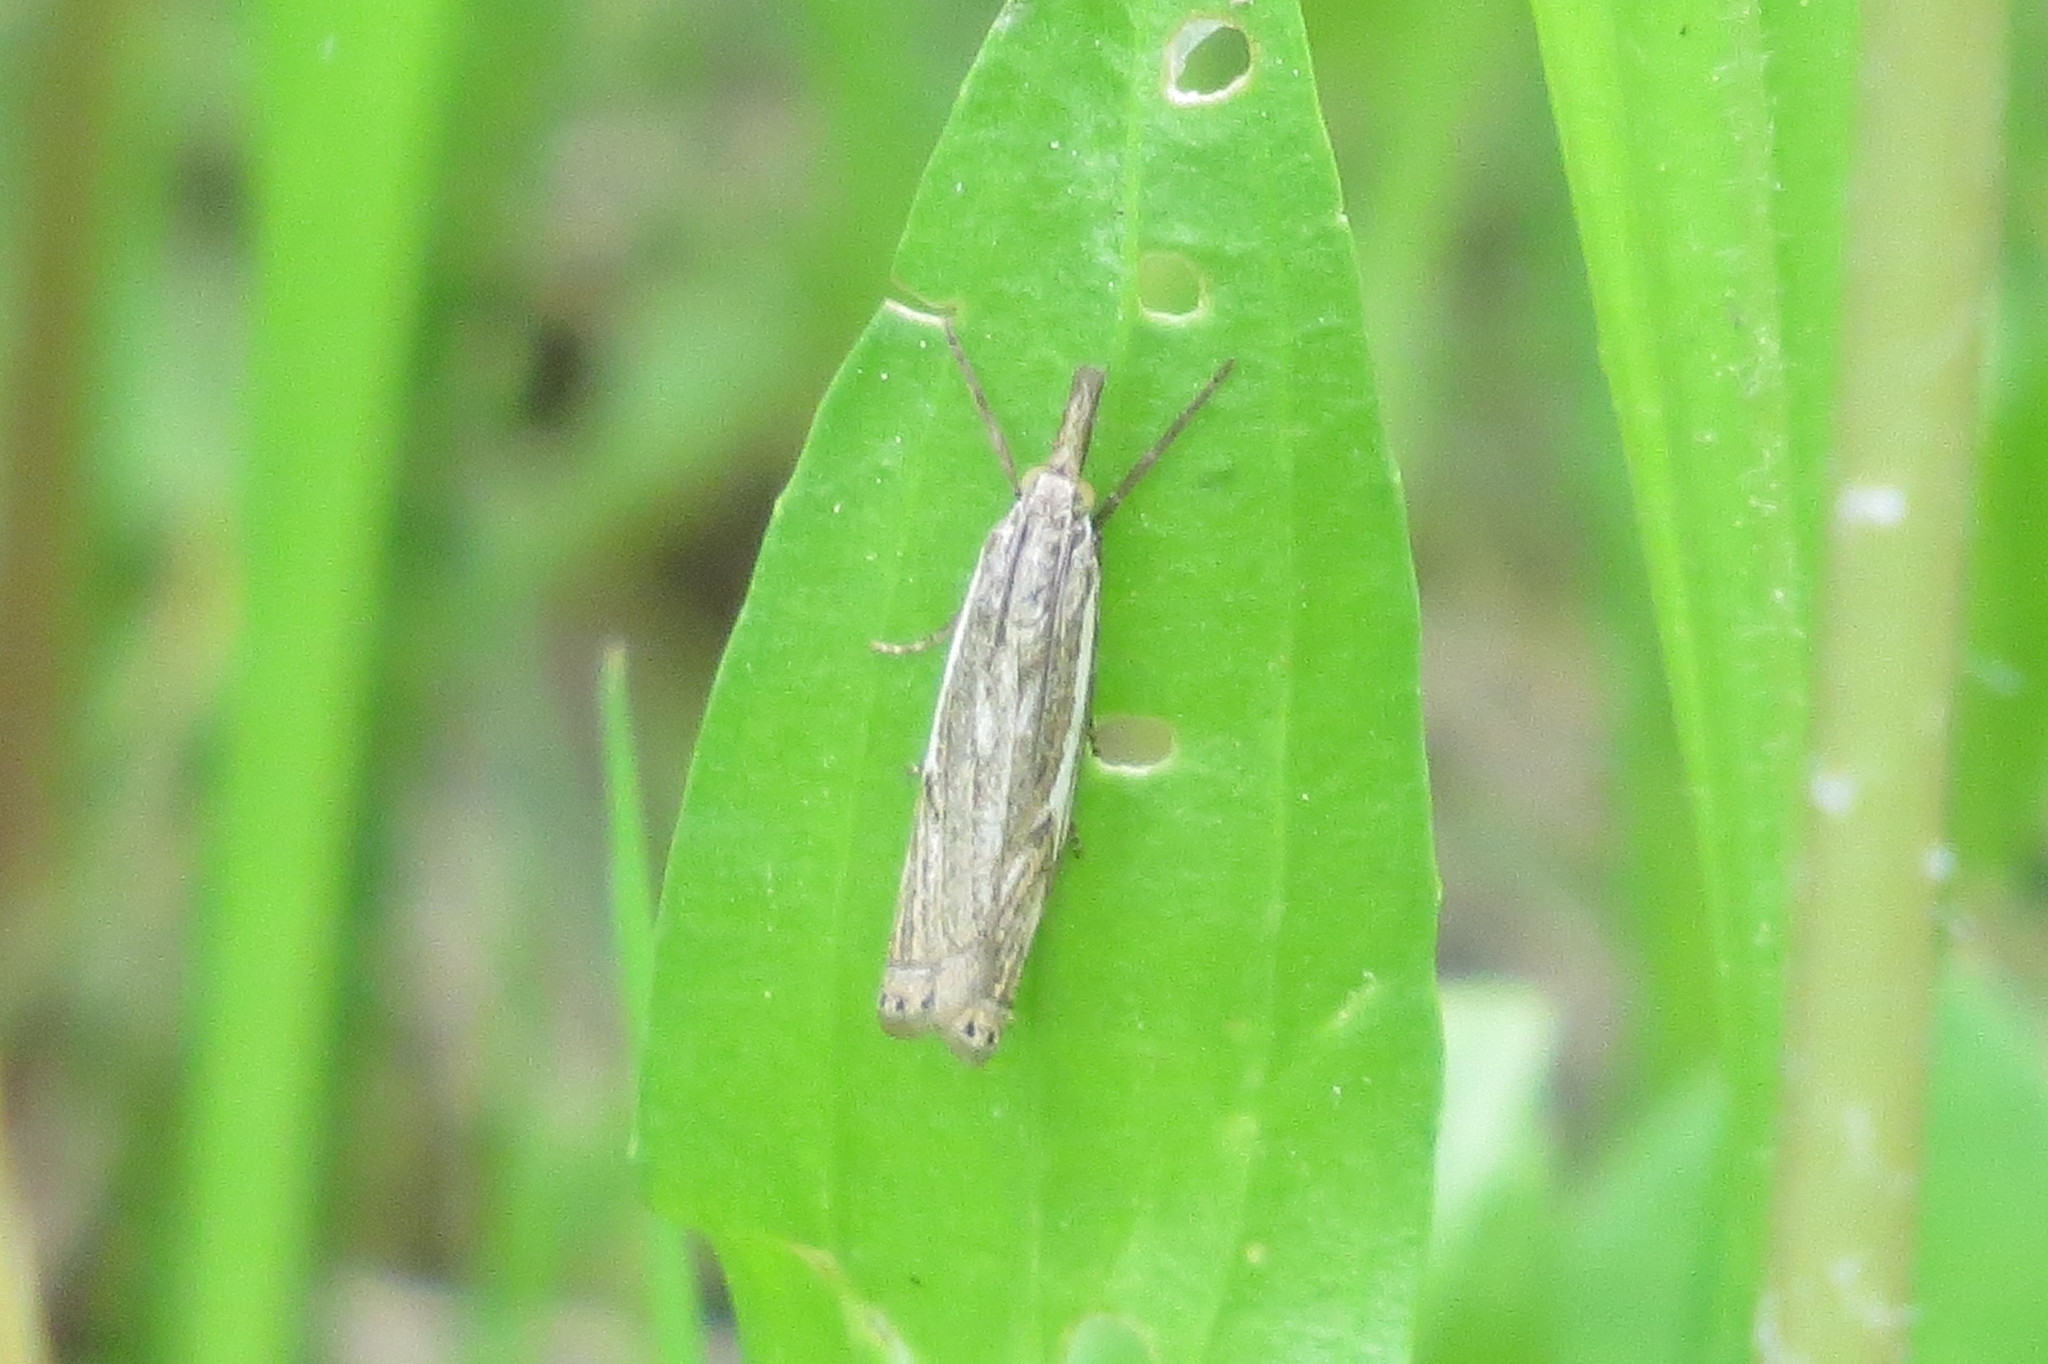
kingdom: Animalia
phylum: Arthropoda
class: Insecta
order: Lepidoptera
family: Crambidae
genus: Crambus
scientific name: Crambus nemorella
